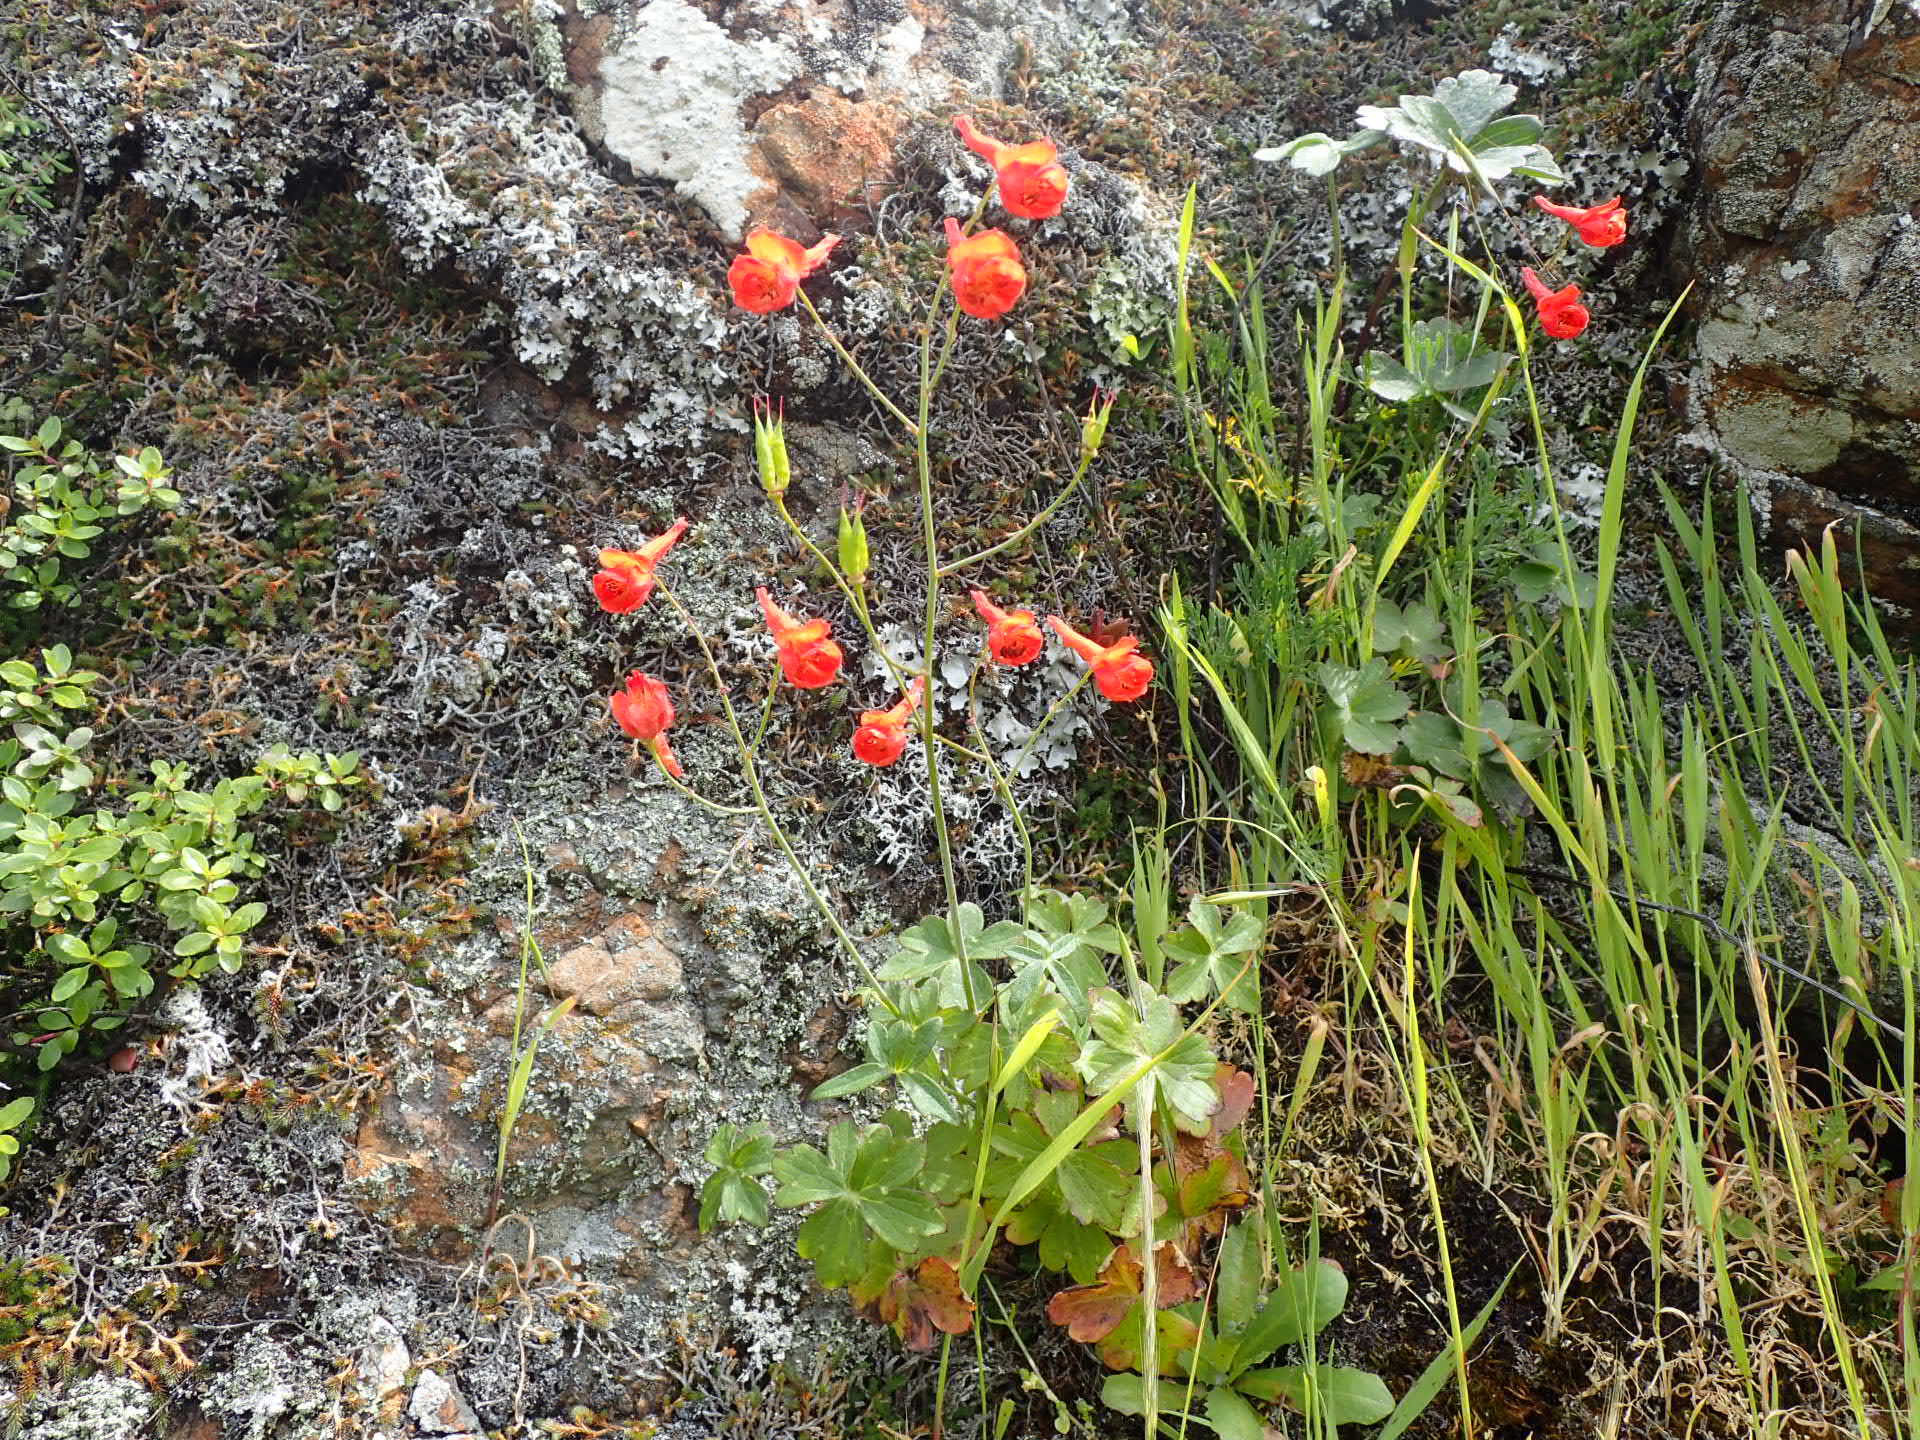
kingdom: Plantae
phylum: Tracheophyta
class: Magnoliopsida
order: Ranunculales
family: Ranunculaceae
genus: Delphinium
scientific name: Delphinium nudicaule
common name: Red larkspur
